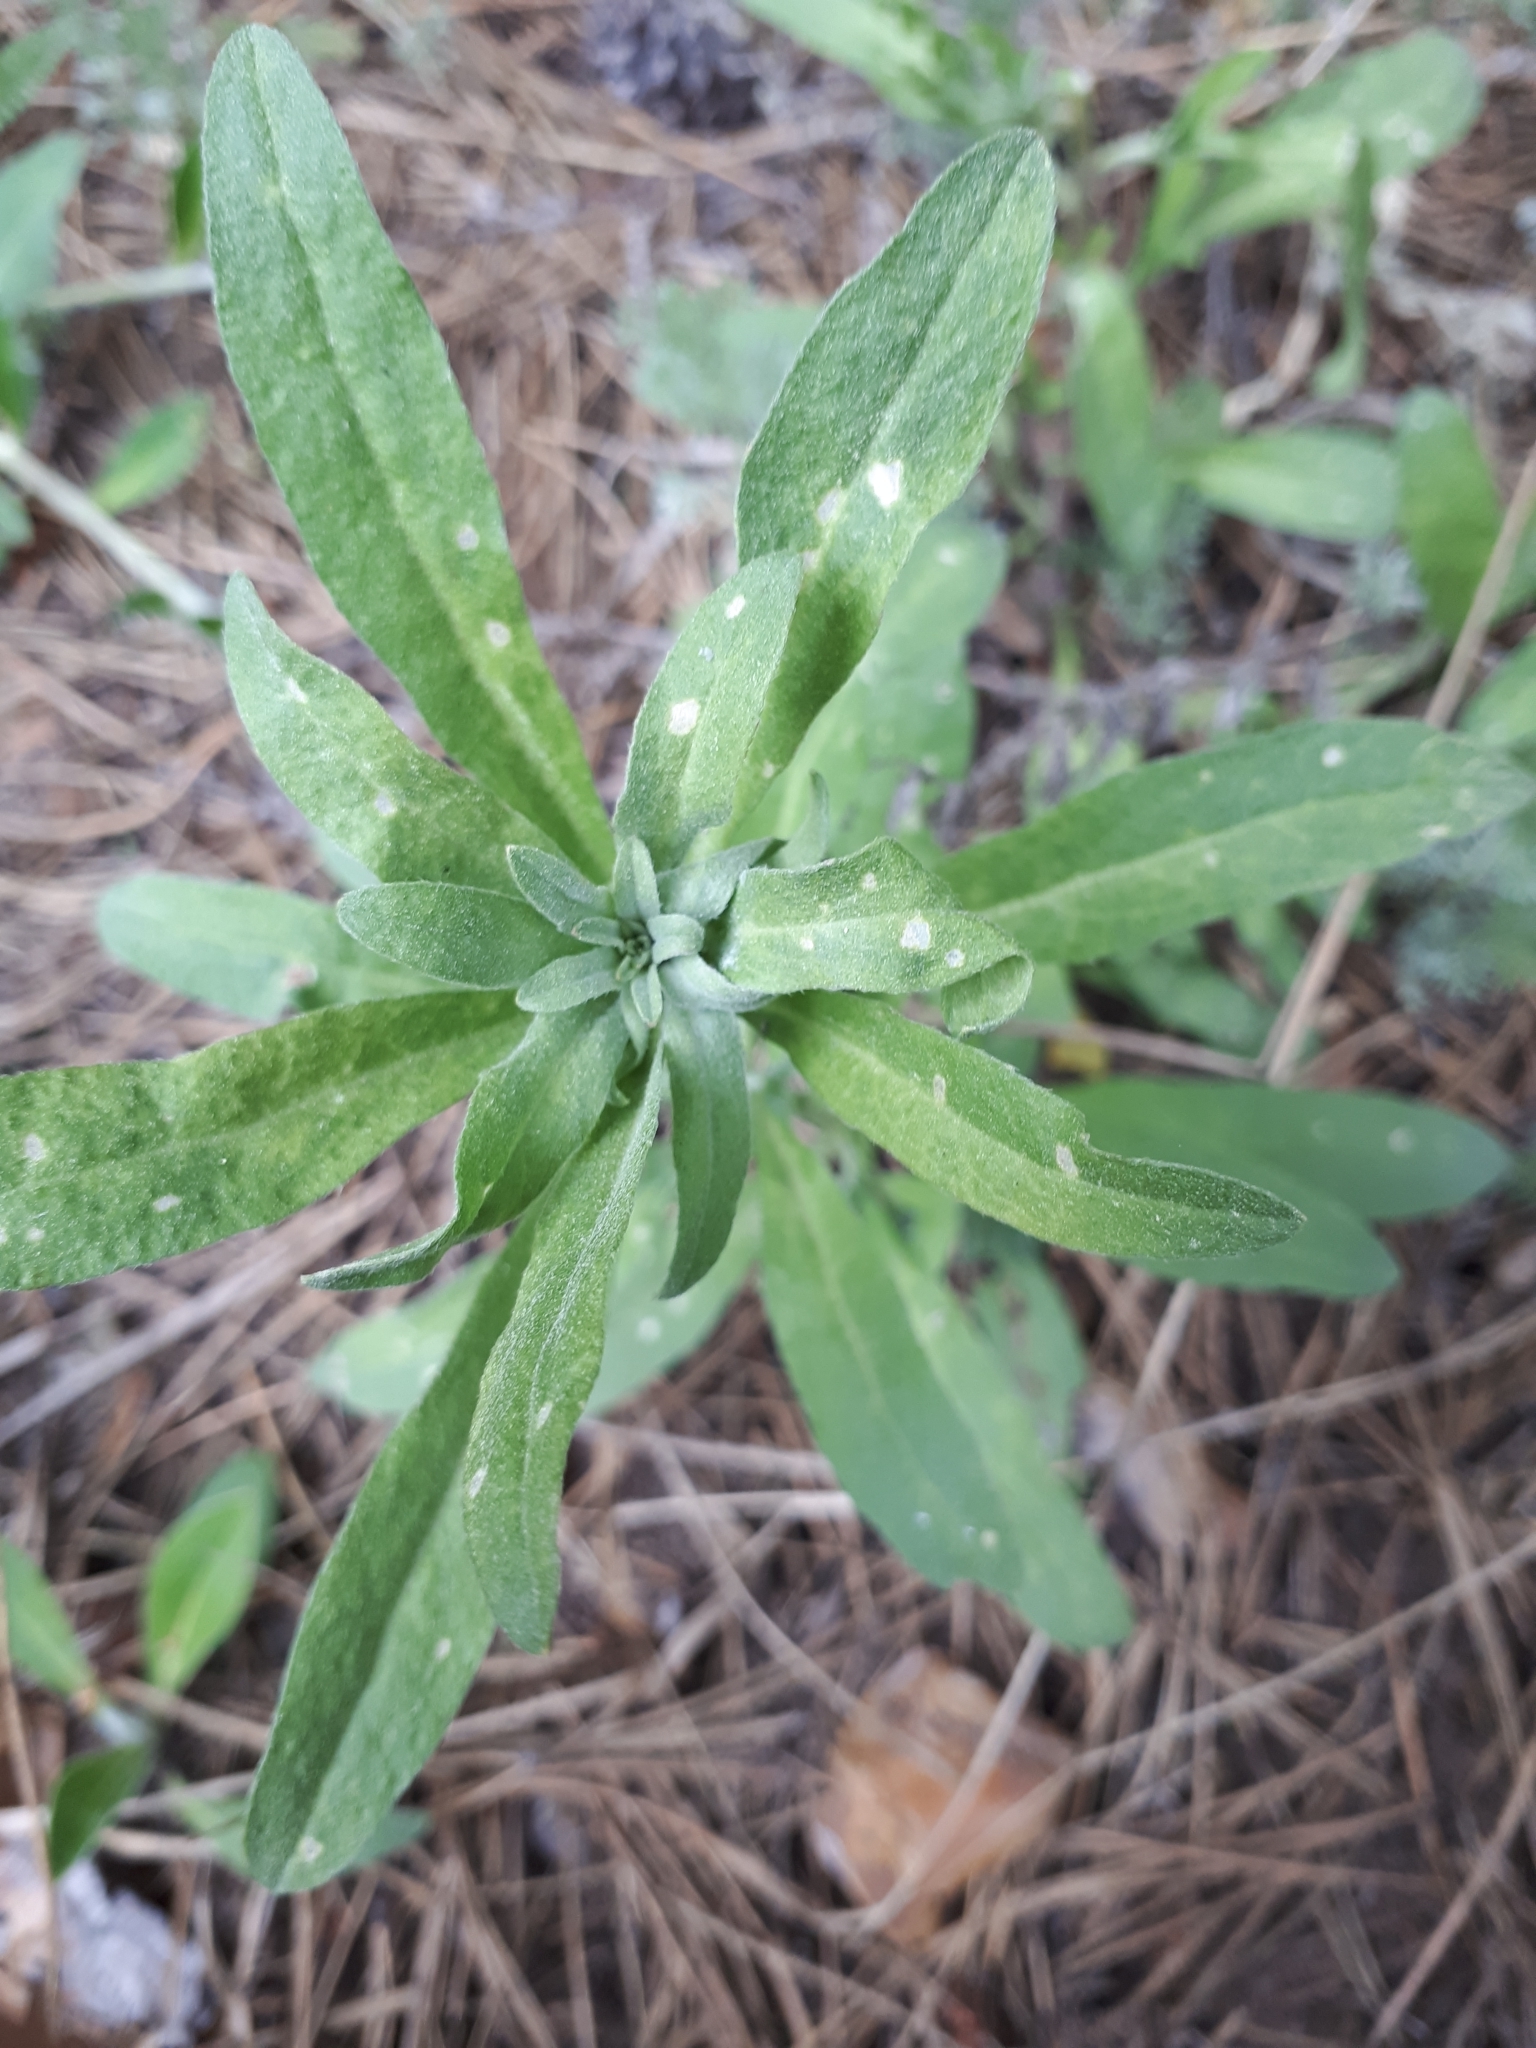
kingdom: Plantae
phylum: Tracheophyta
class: Magnoliopsida
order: Brassicales
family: Brassicaceae
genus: Berteroa
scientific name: Berteroa incana
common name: Hoary alison
